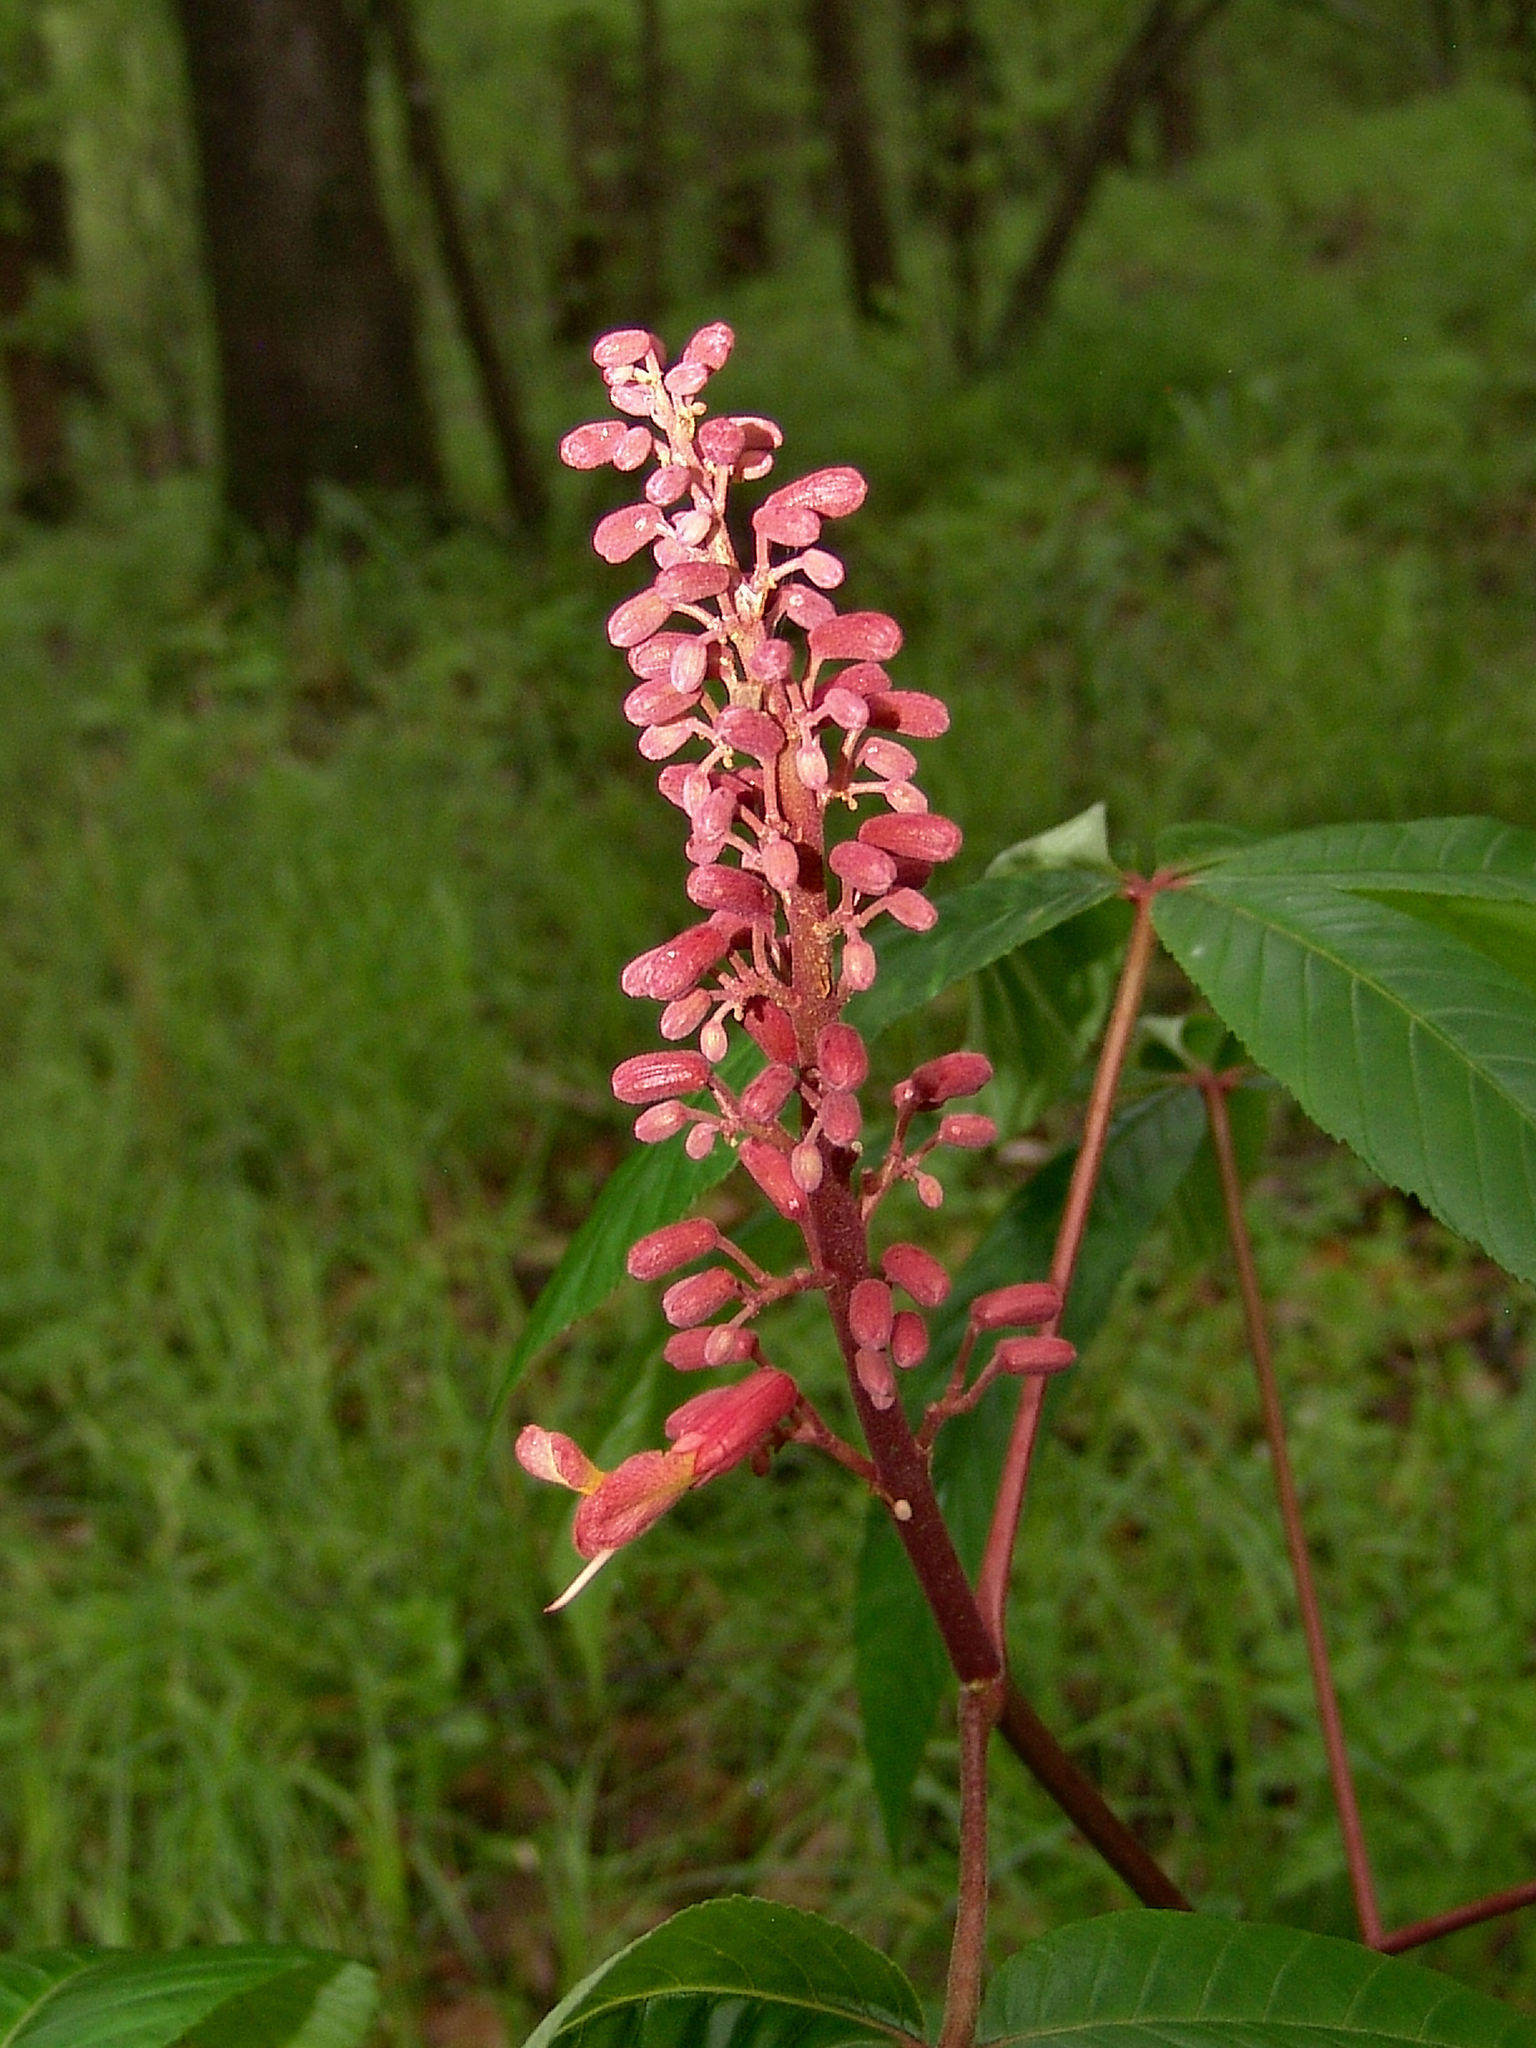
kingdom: Plantae
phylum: Tracheophyta
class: Magnoliopsida
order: Sapindales
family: Sapindaceae
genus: Aesculus
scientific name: Aesculus pavia
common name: Red buckeye
